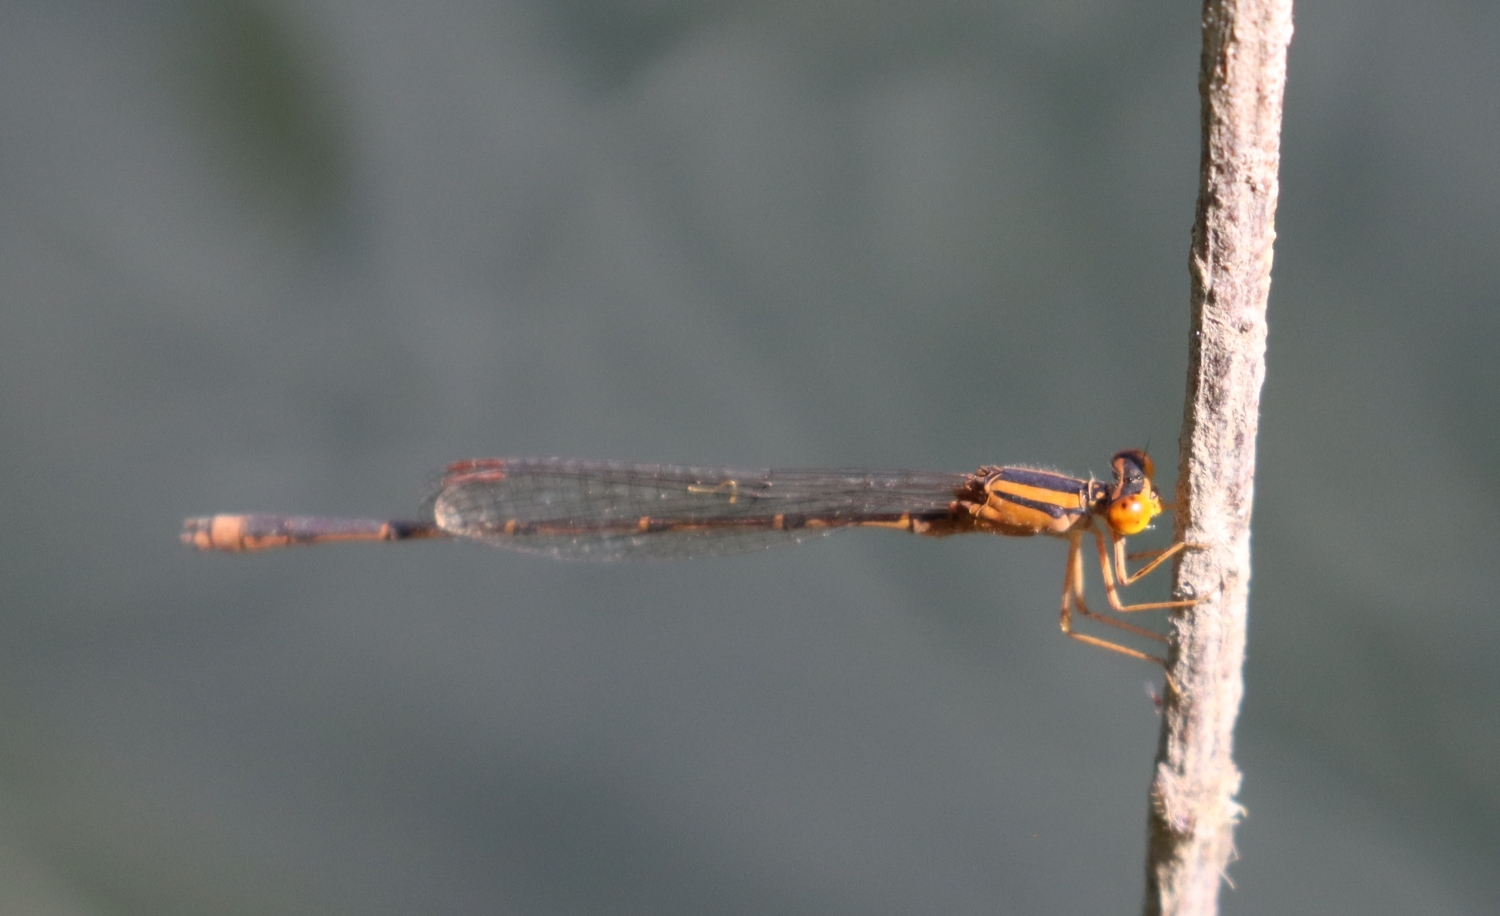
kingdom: Animalia
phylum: Arthropoda
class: Insecta
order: Odonata
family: Coenagrionidae
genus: Enallagma
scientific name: Enallagma signatum
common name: Orange bluet
